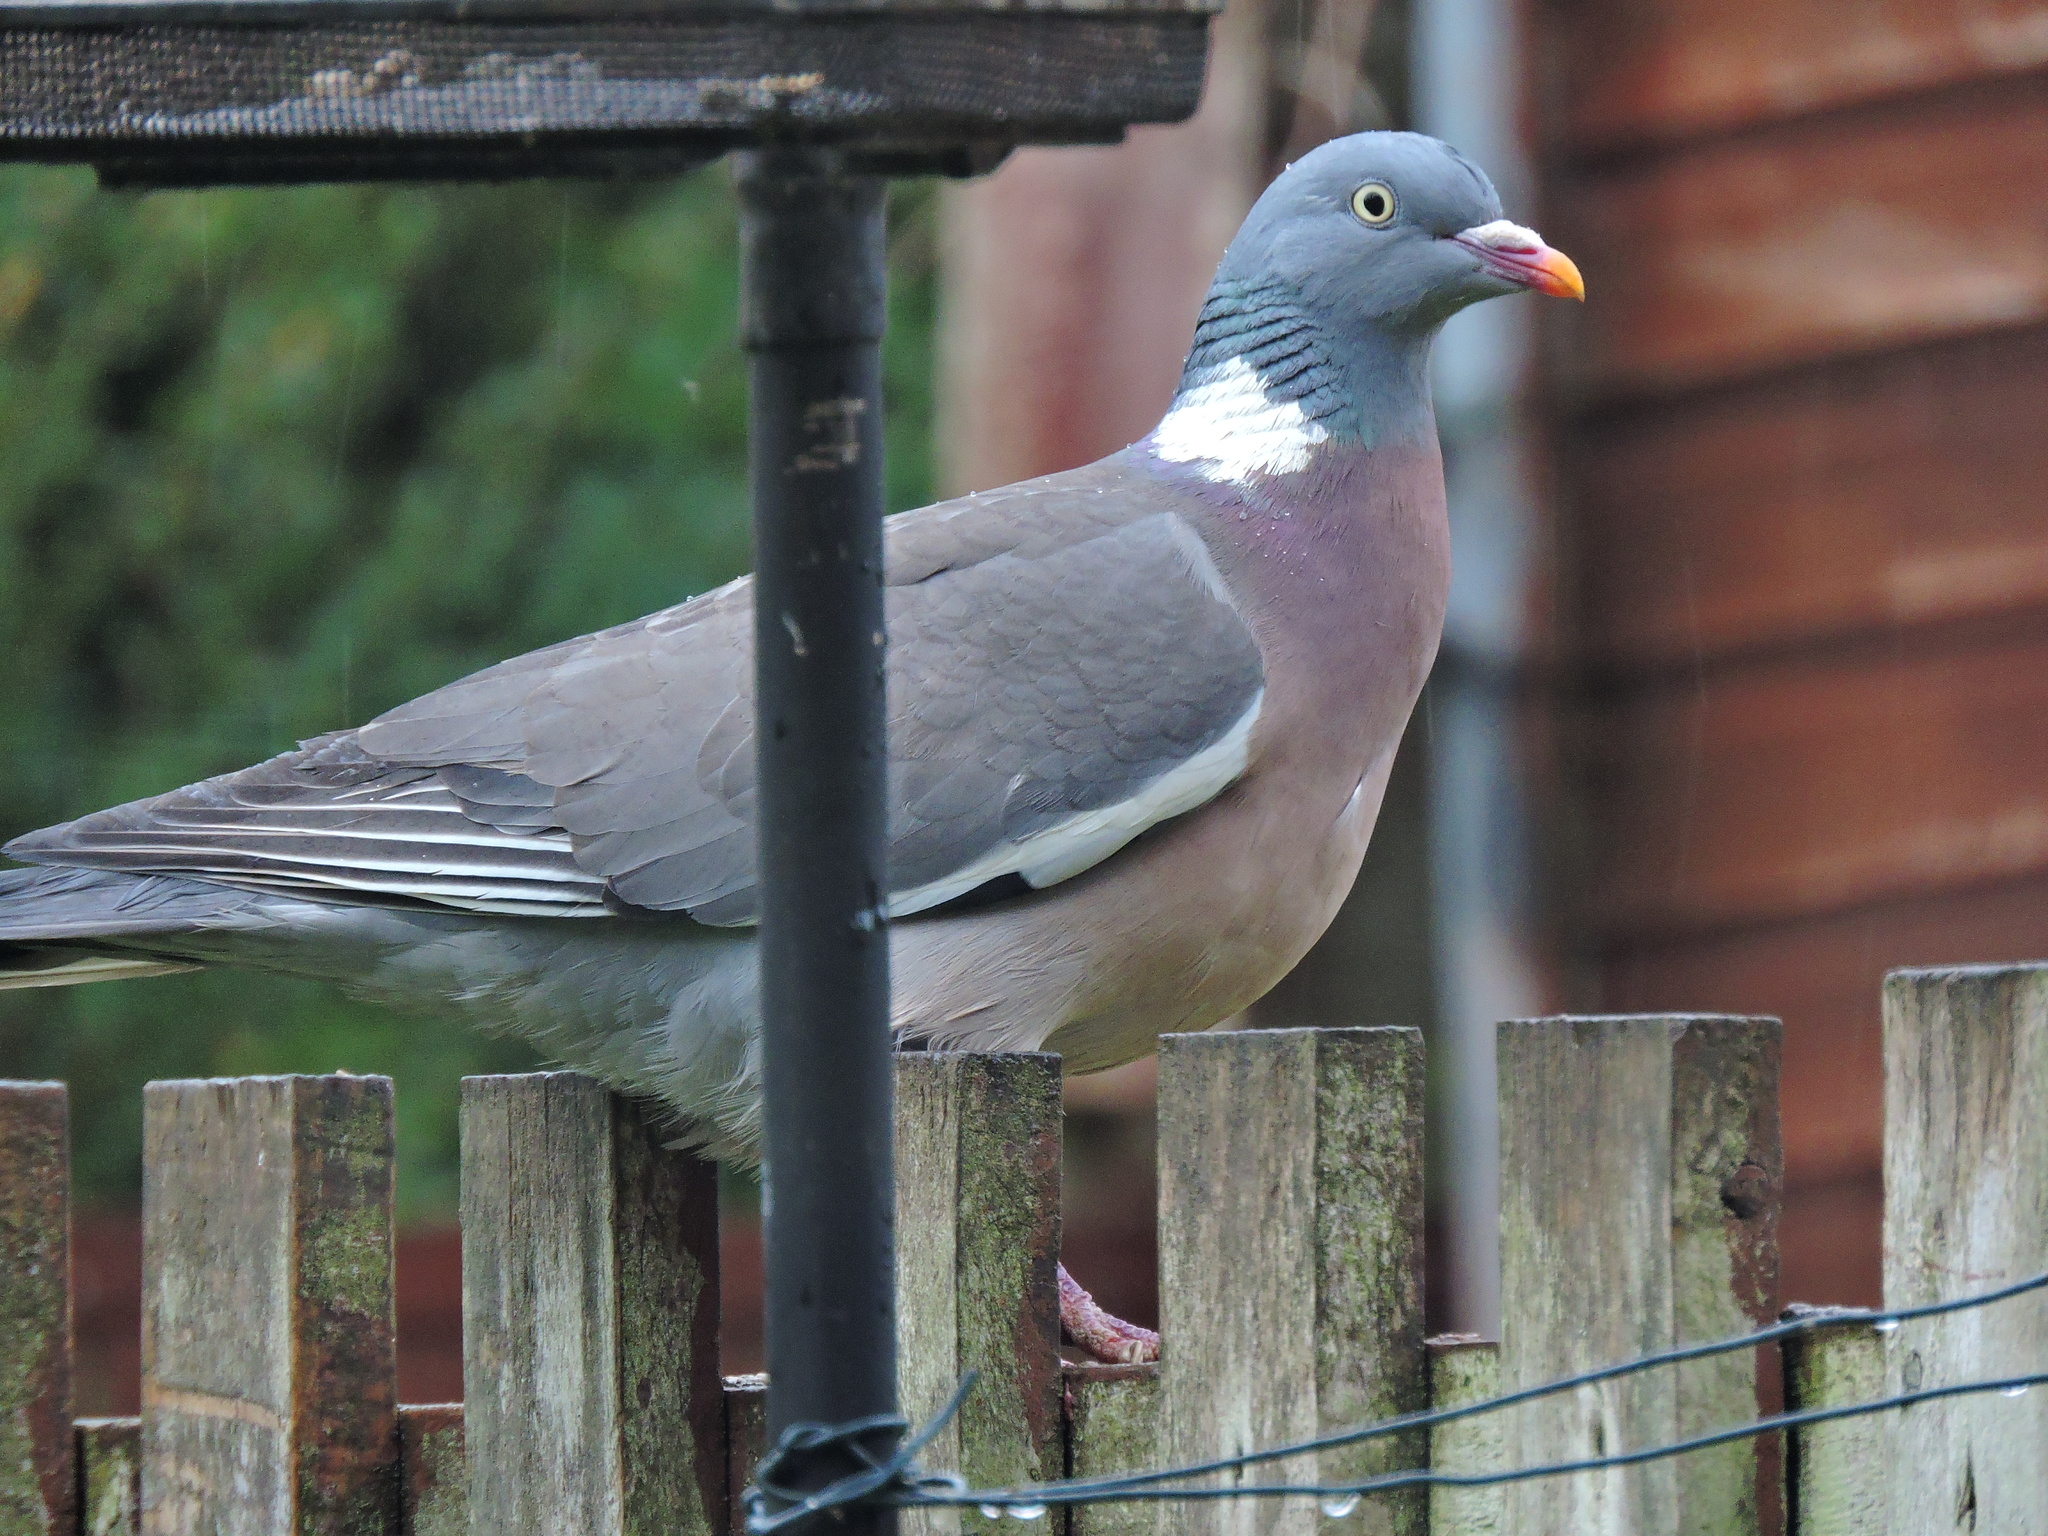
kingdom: Animalia
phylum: Chordata
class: Aves
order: Columbiformes
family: Columbidae
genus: Columba
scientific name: Columba palumbus
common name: Common wood pigeon
